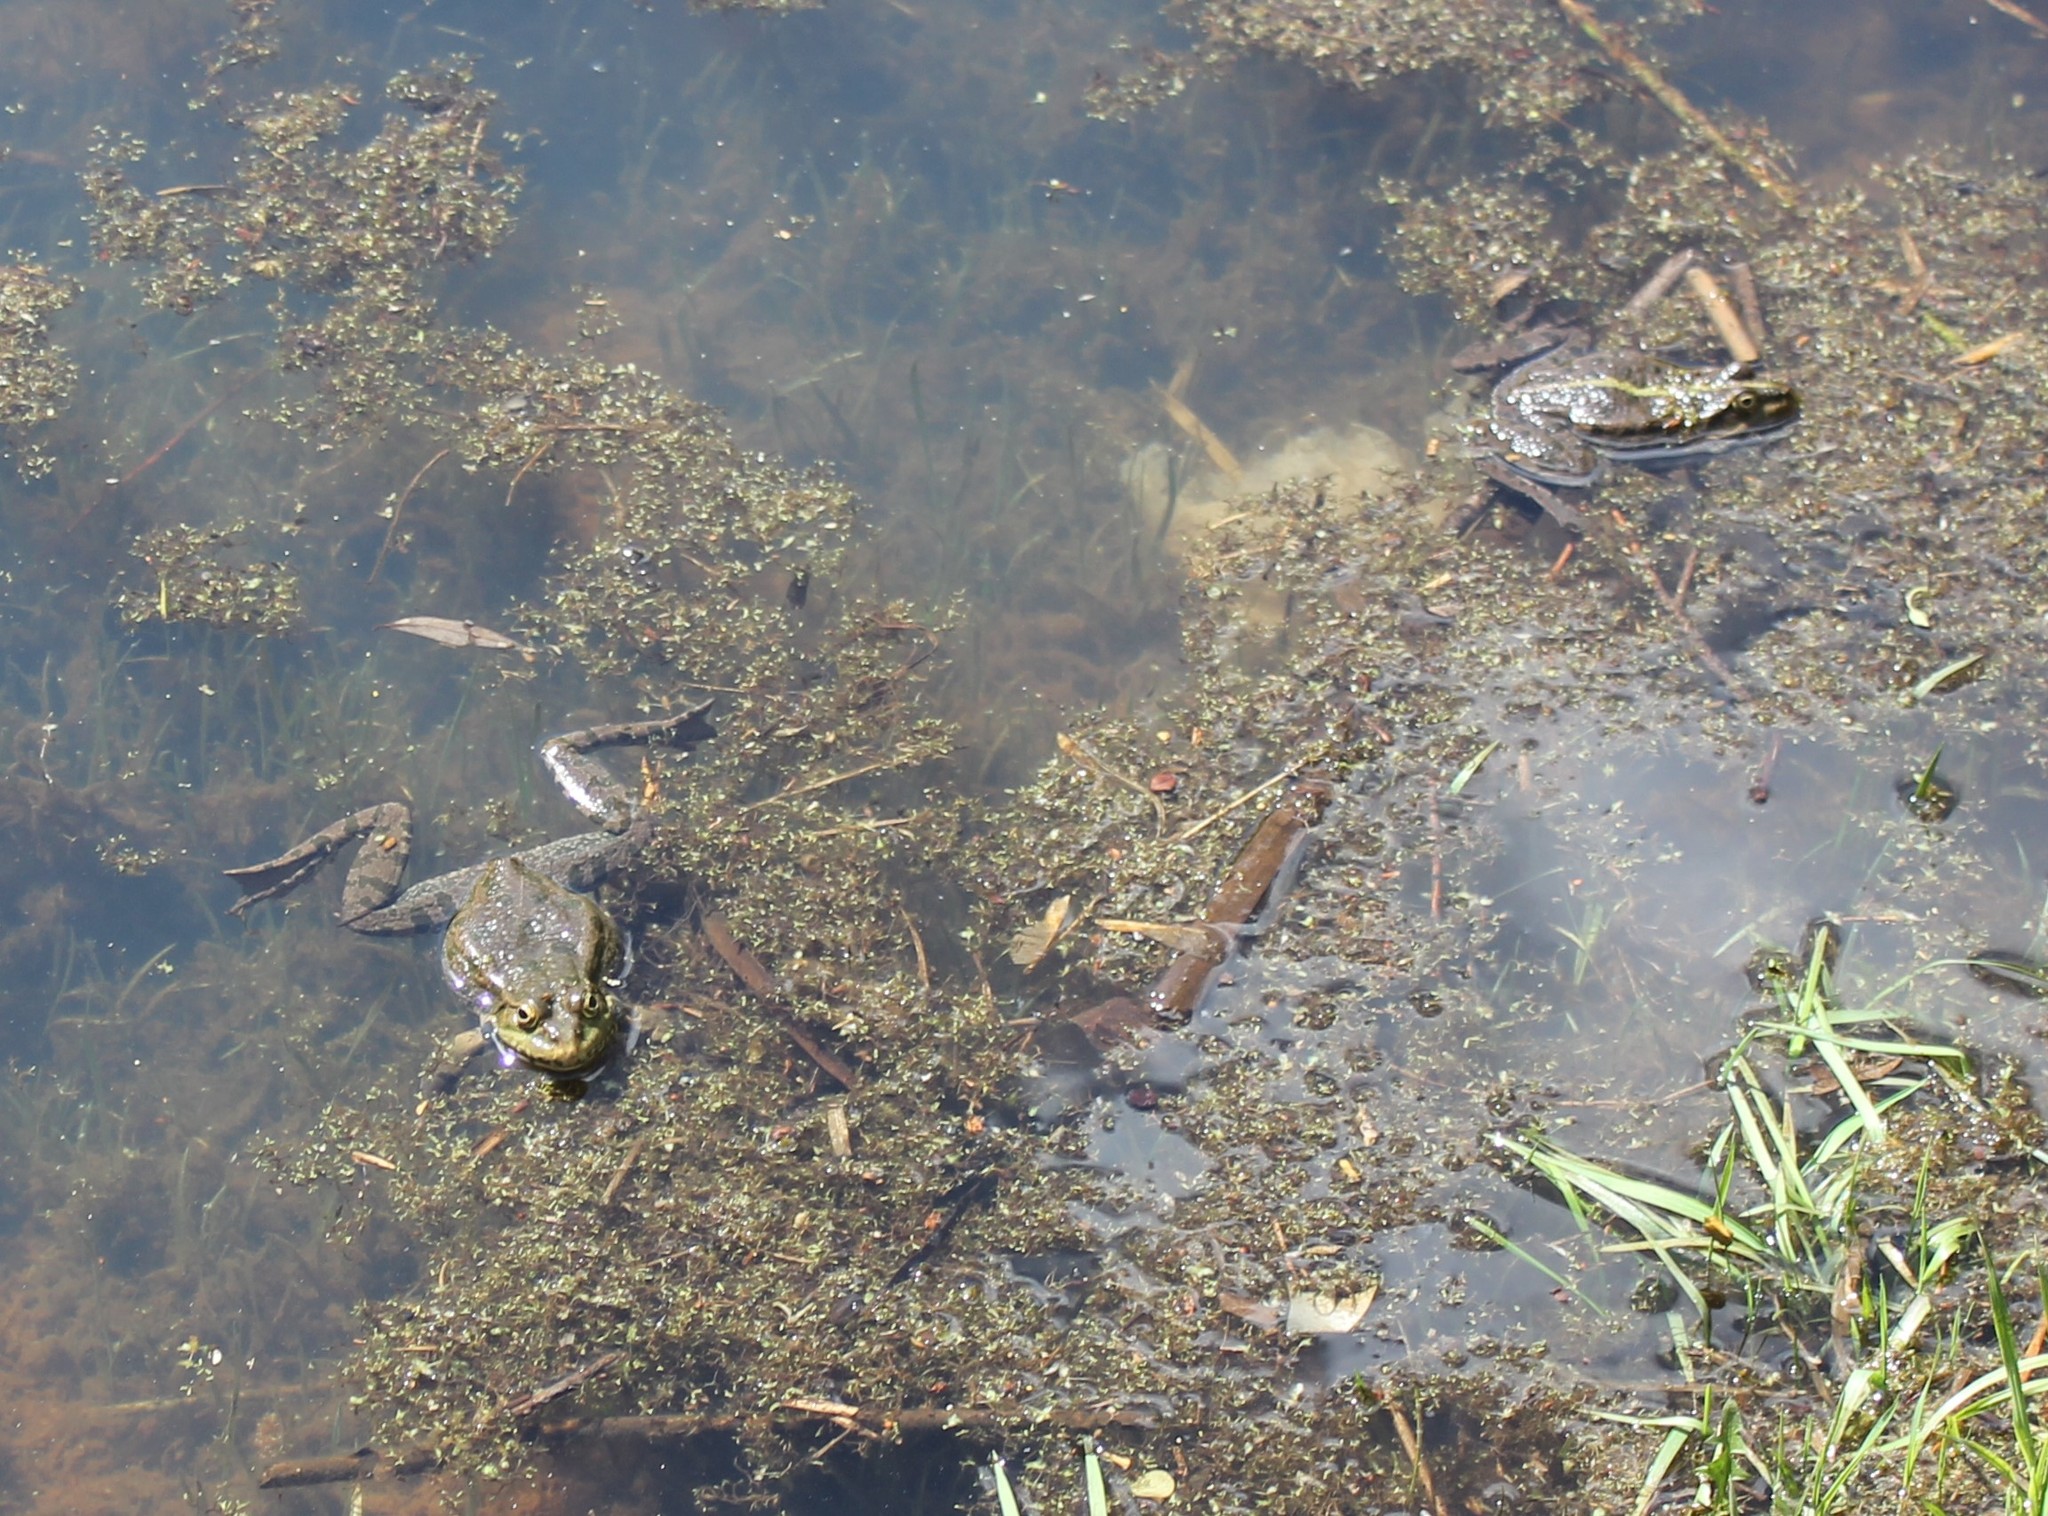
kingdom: Animalia
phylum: Chordata
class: Amphibia
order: Anura
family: Ranidae
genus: Pelophylax
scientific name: Pelophylax ridibundus
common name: Marsh frog
